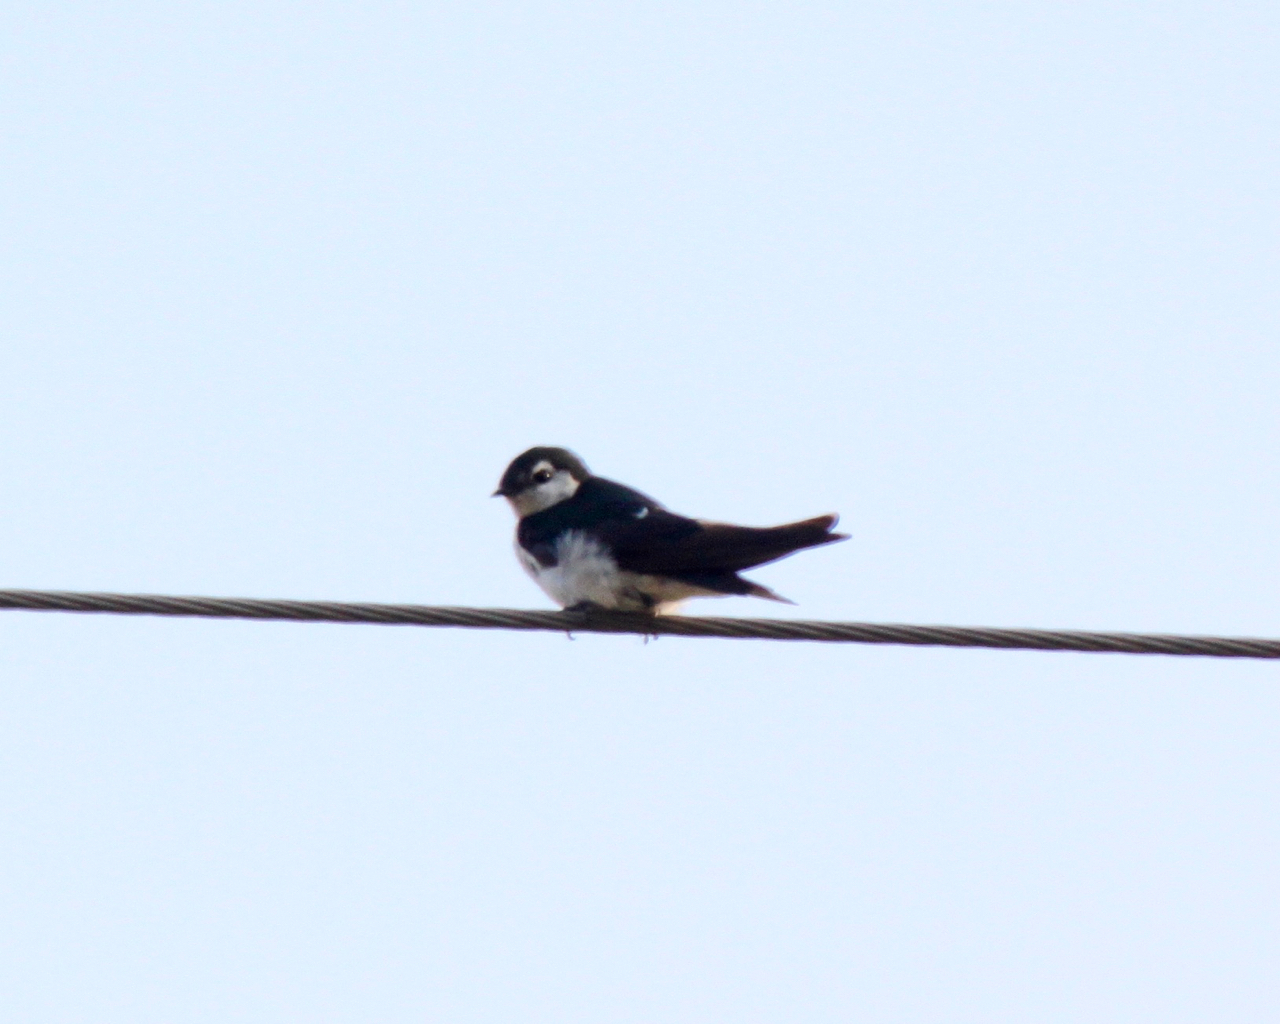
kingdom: Animalia
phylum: Chordata
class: Aves
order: Passeriformes
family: Hirundinidae
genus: Tachycineta
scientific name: Tachycineta thalassina
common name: Violet-green swallow
